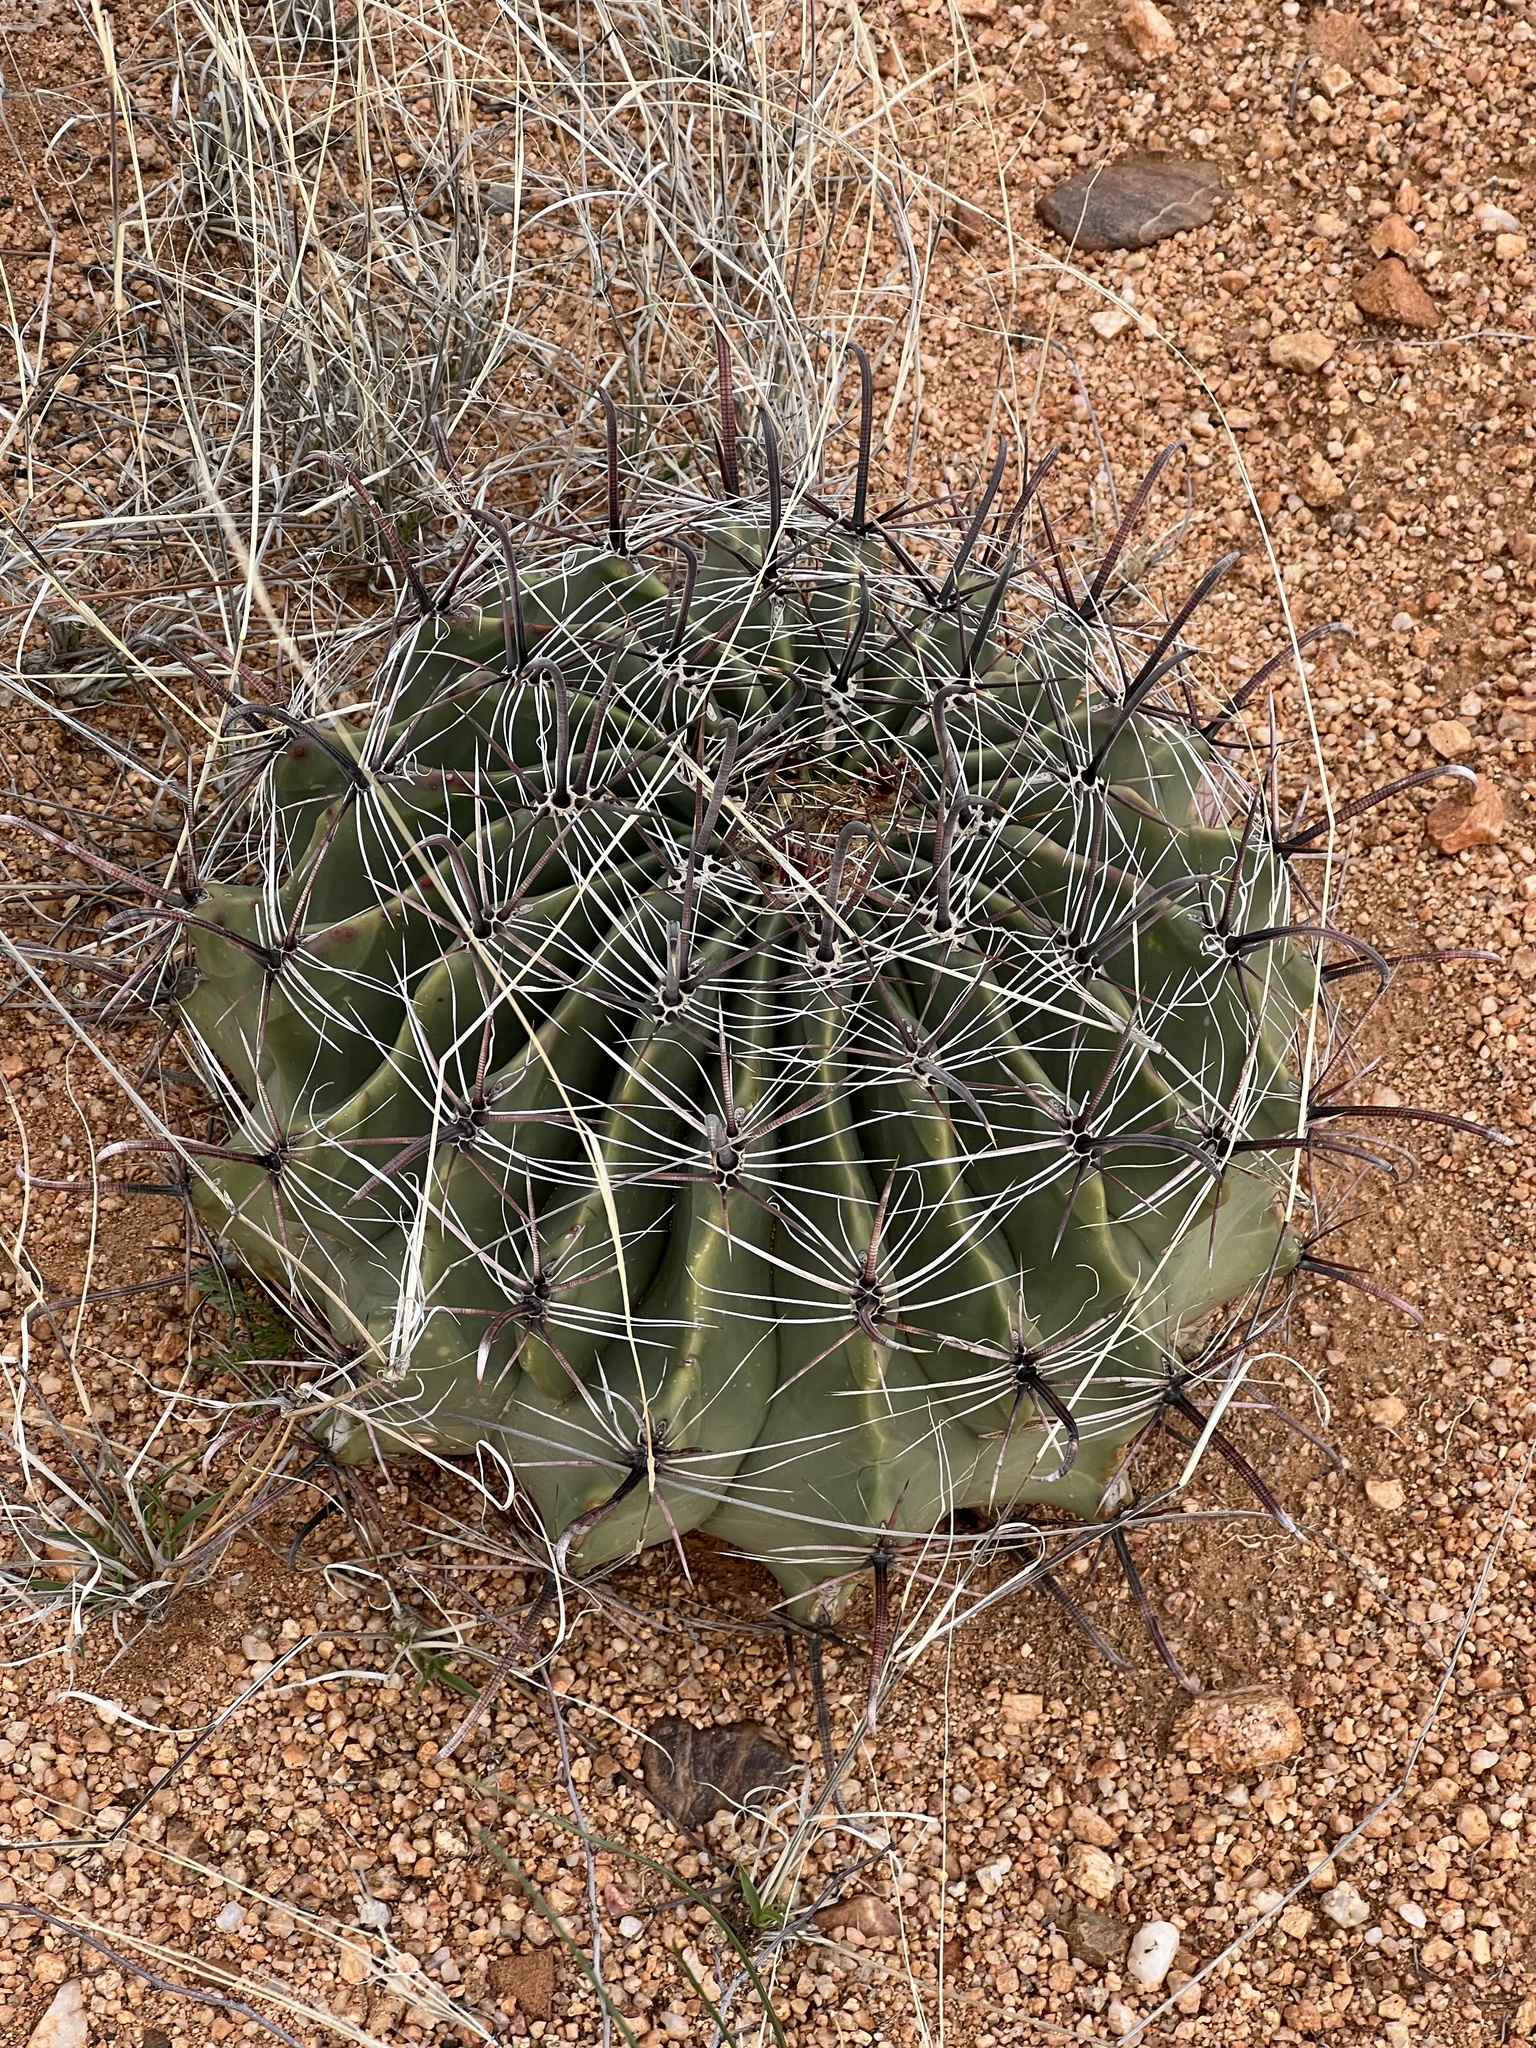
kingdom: Plantae
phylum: Tracheophyta
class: Magnoliopsida
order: Caryophyllales
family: Cactaceae
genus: Ferocactus
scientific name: Ferocactus wislizeni
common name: Candy barrel cactus
